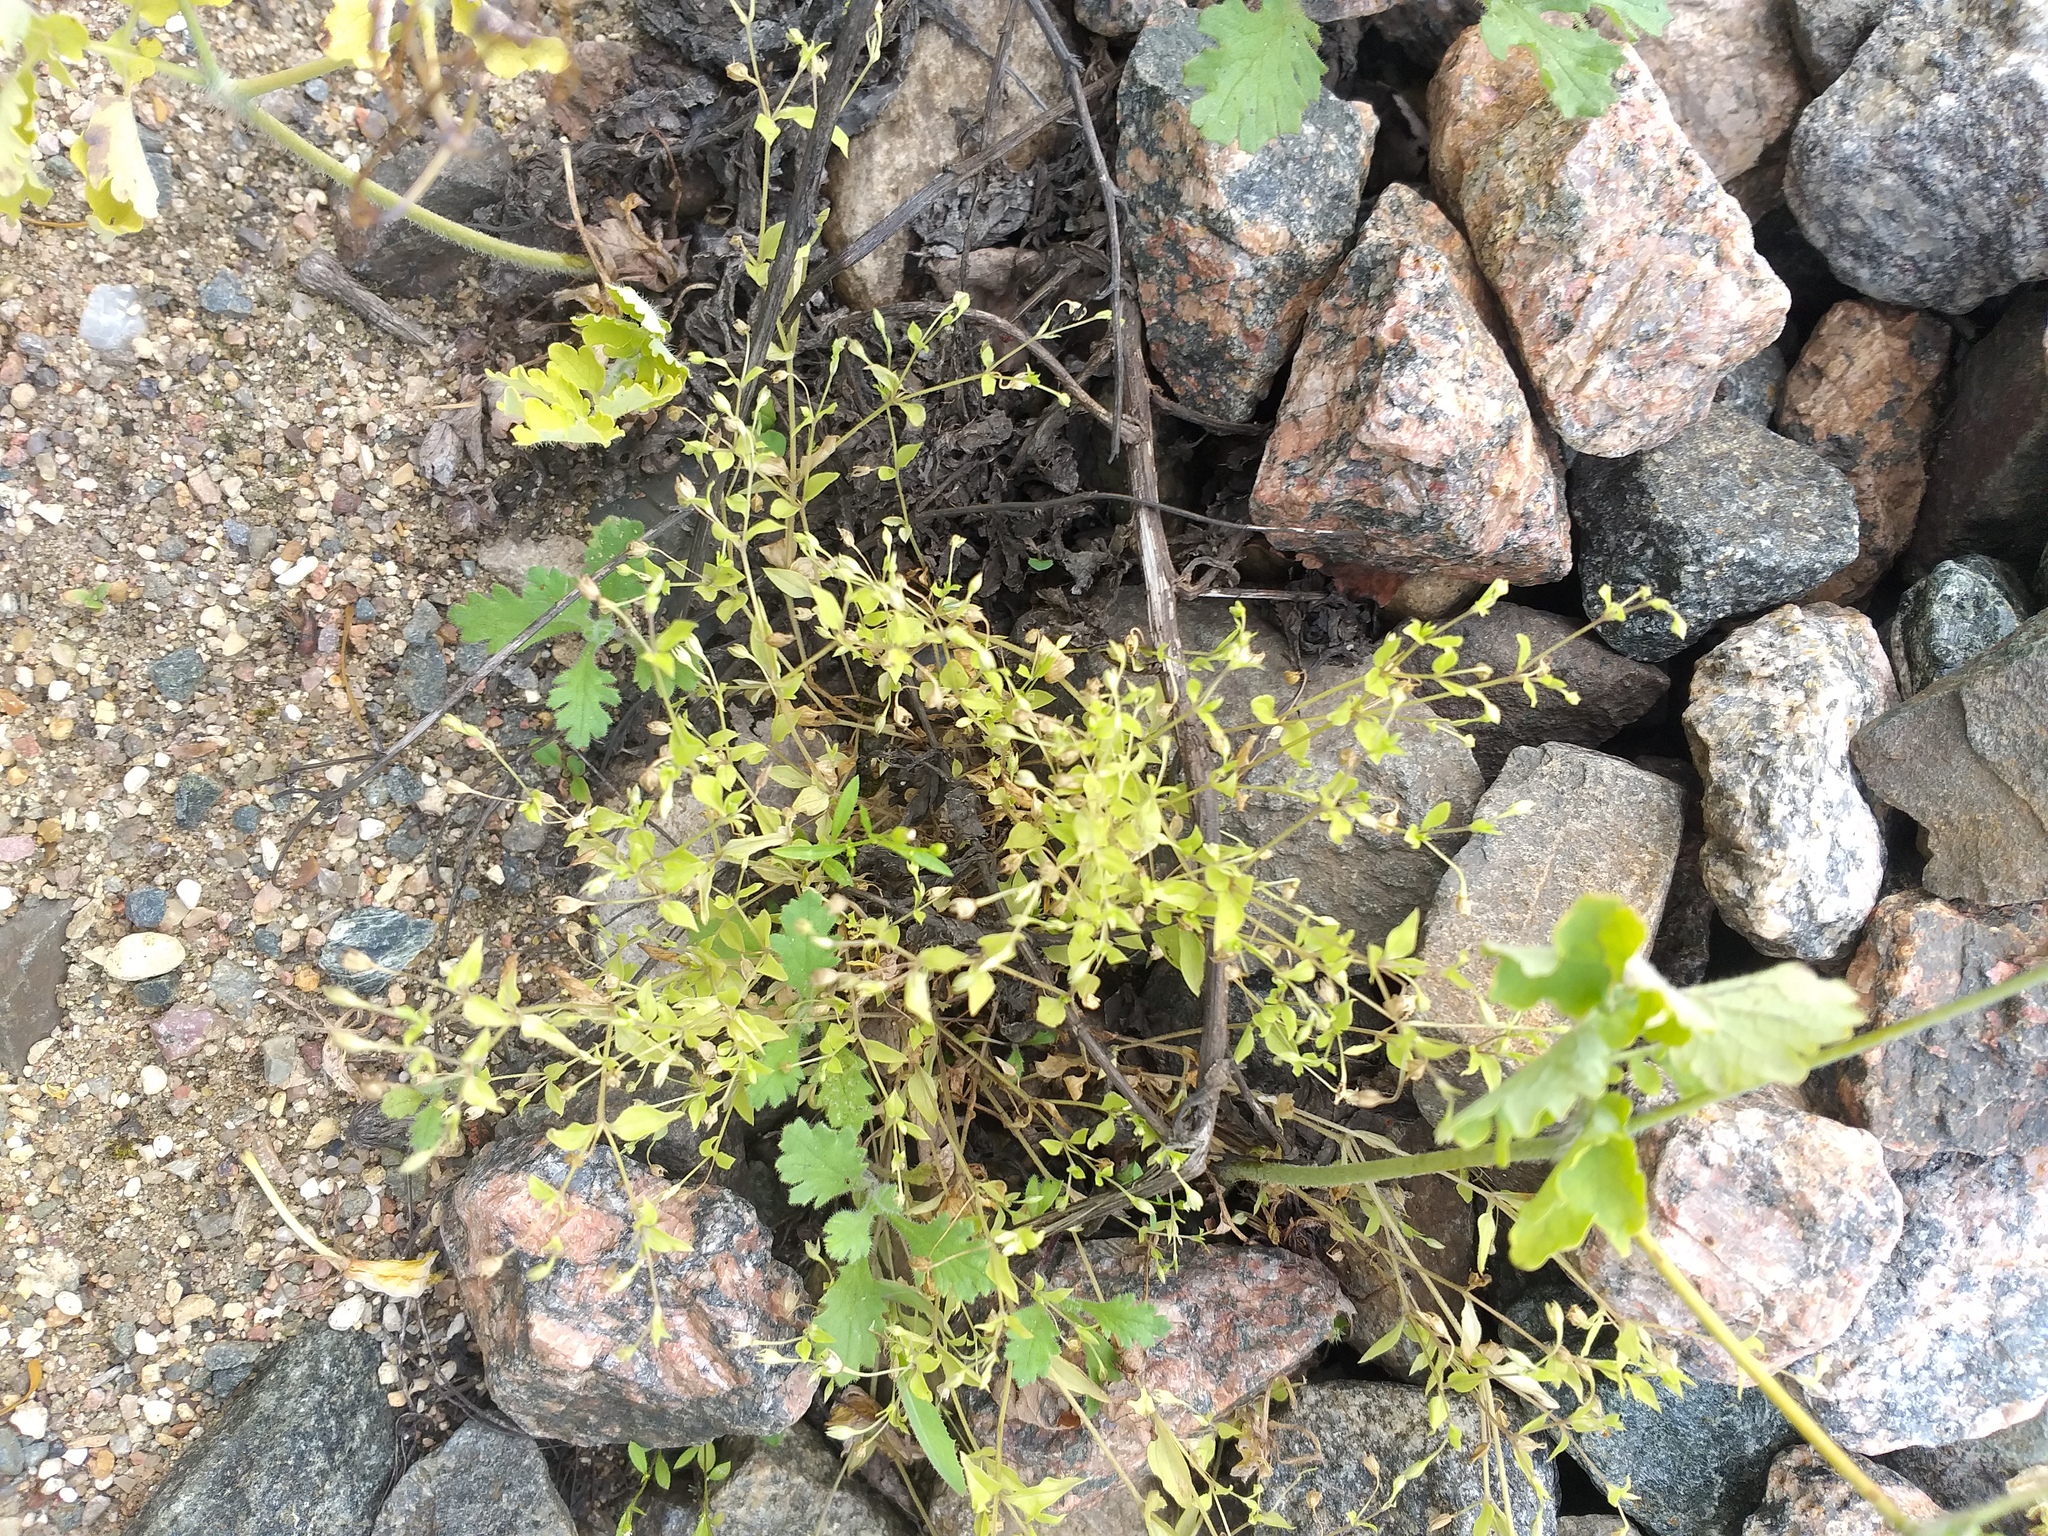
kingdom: Plantae
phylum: Tracheophyta
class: Magnoliopsida
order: Caryophyllales
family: Caryophyllaceae
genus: Moehringia
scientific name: Moehringia trinervia
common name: Three-nerved sandwort
